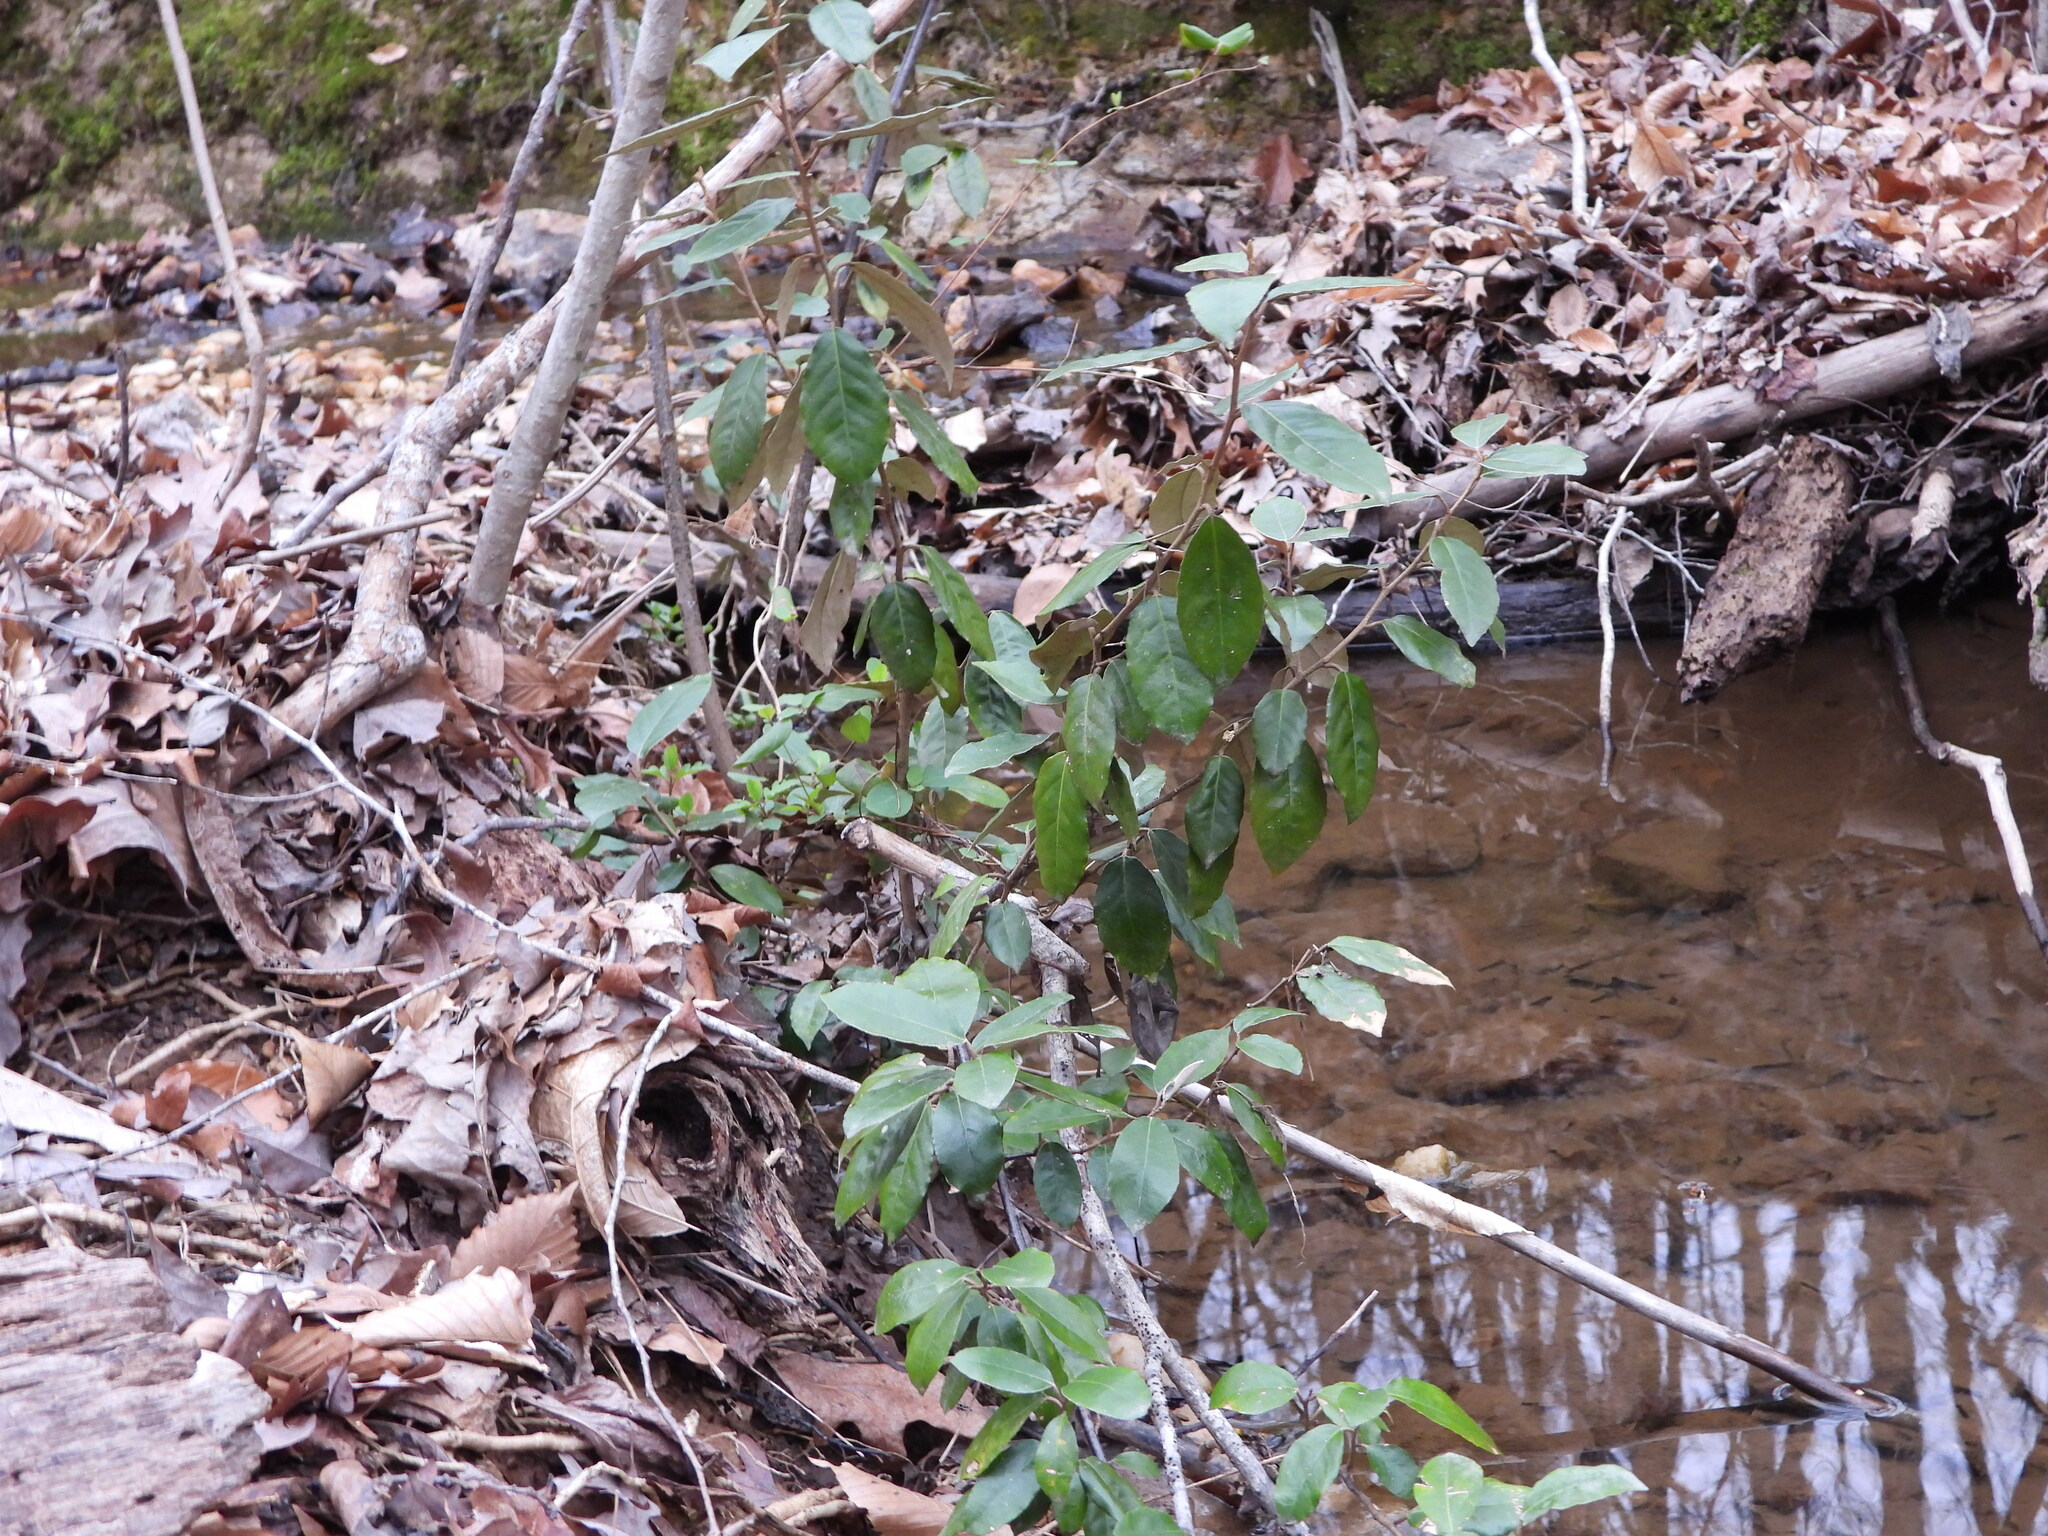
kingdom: Plantae
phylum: Tracheophyta
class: Magnoliopsida
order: Rosales
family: Elaeagnaceae
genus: Elaeagnus
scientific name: Elaeagnus pungens
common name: Spiny oleaster
